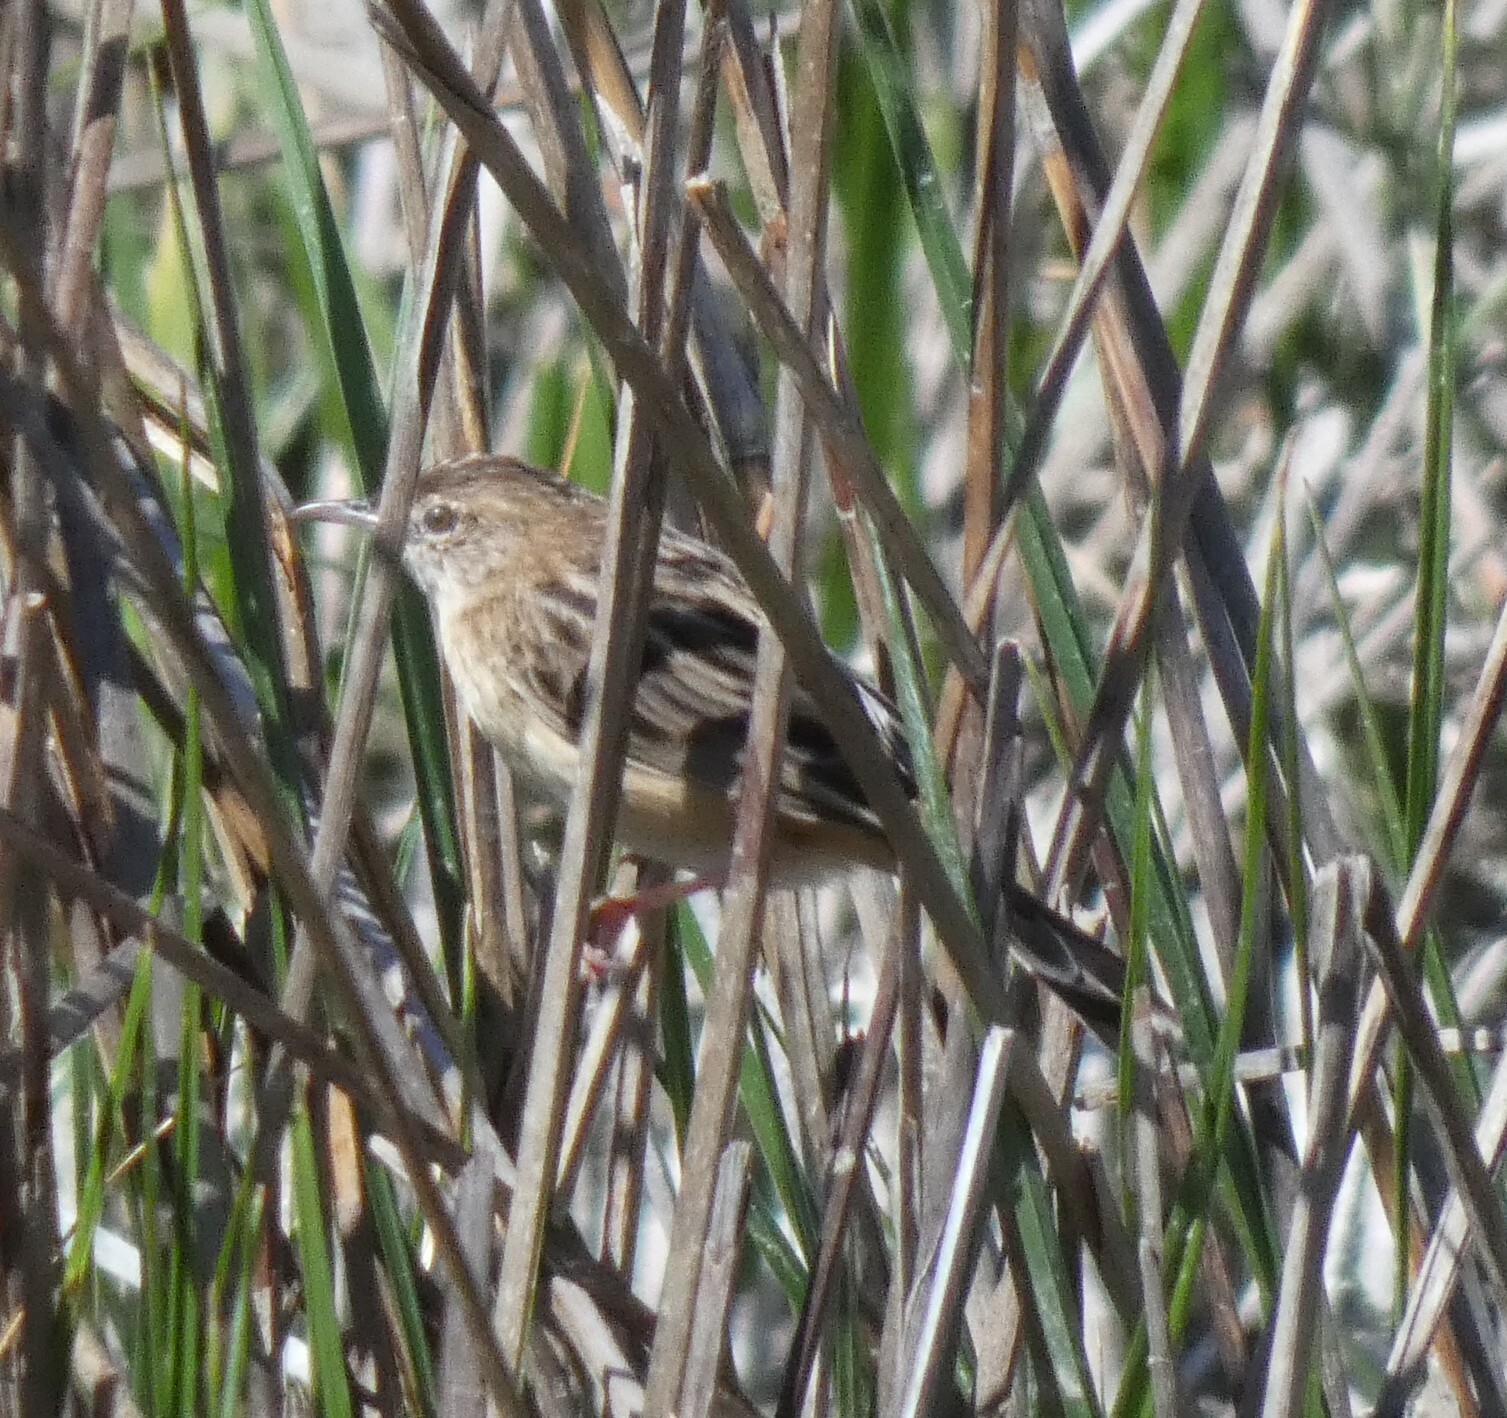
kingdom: Animalia
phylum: Chordata
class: Aves
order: Passeriformes
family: Cisticolidae
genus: Cisticola
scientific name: Cisticola juncidis
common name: Zitting cisticola
